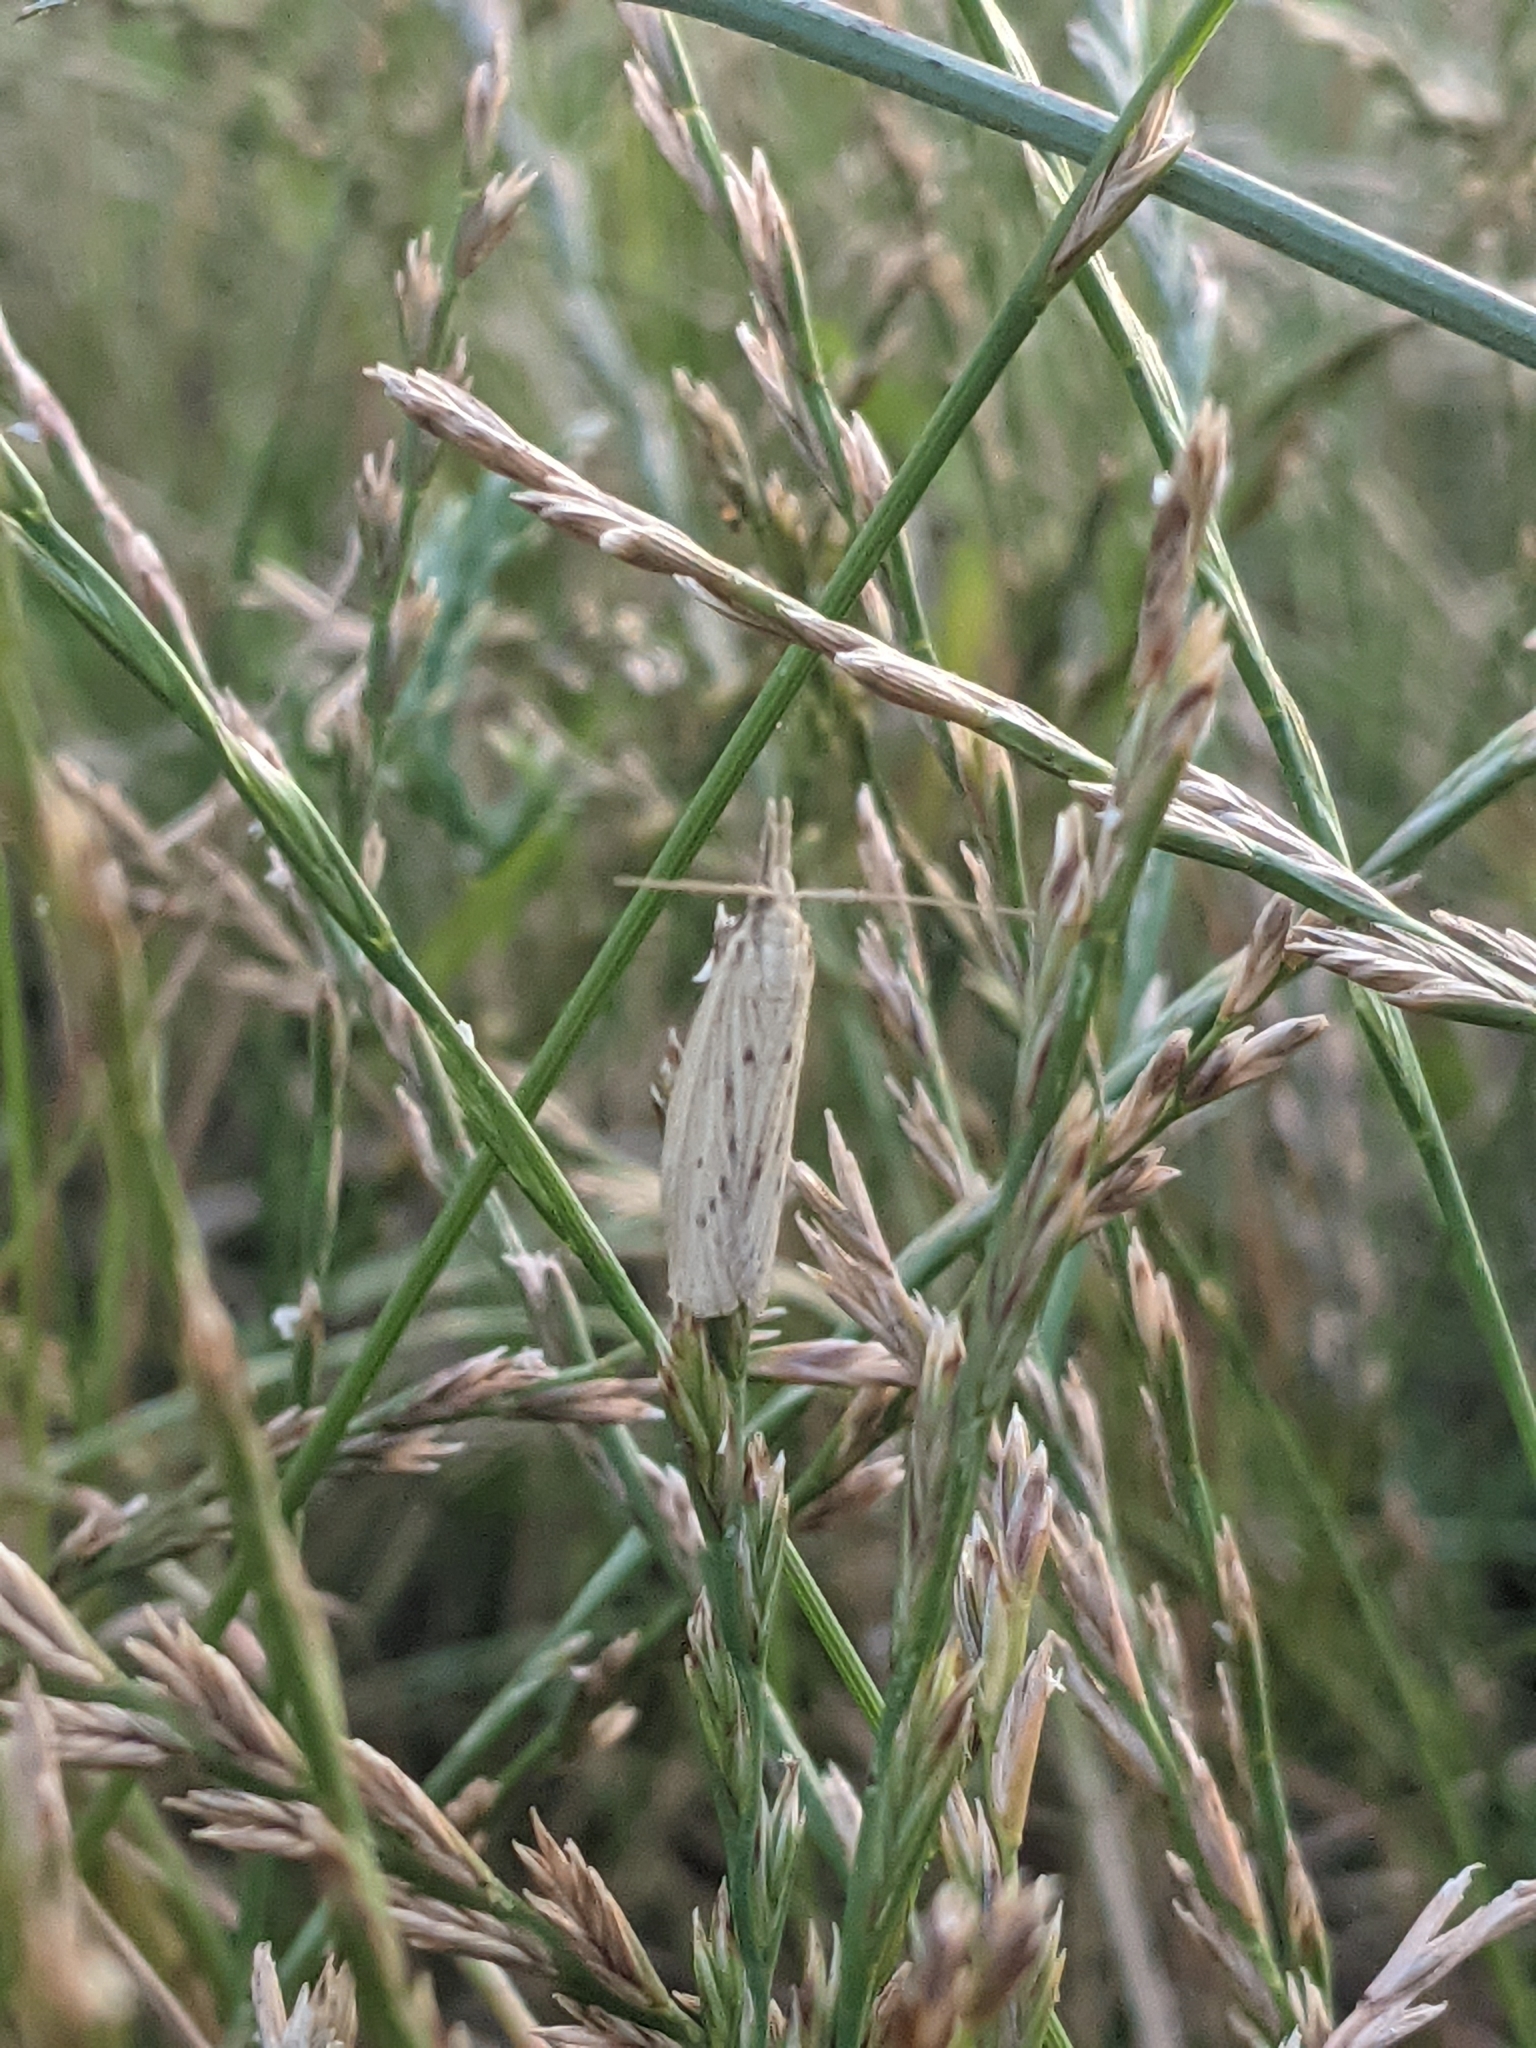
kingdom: Animalia
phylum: Arthropoda
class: Insecta
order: Lepidoptera
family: Pyralidae
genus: Ematheudes
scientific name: Ematheudes punctellus
